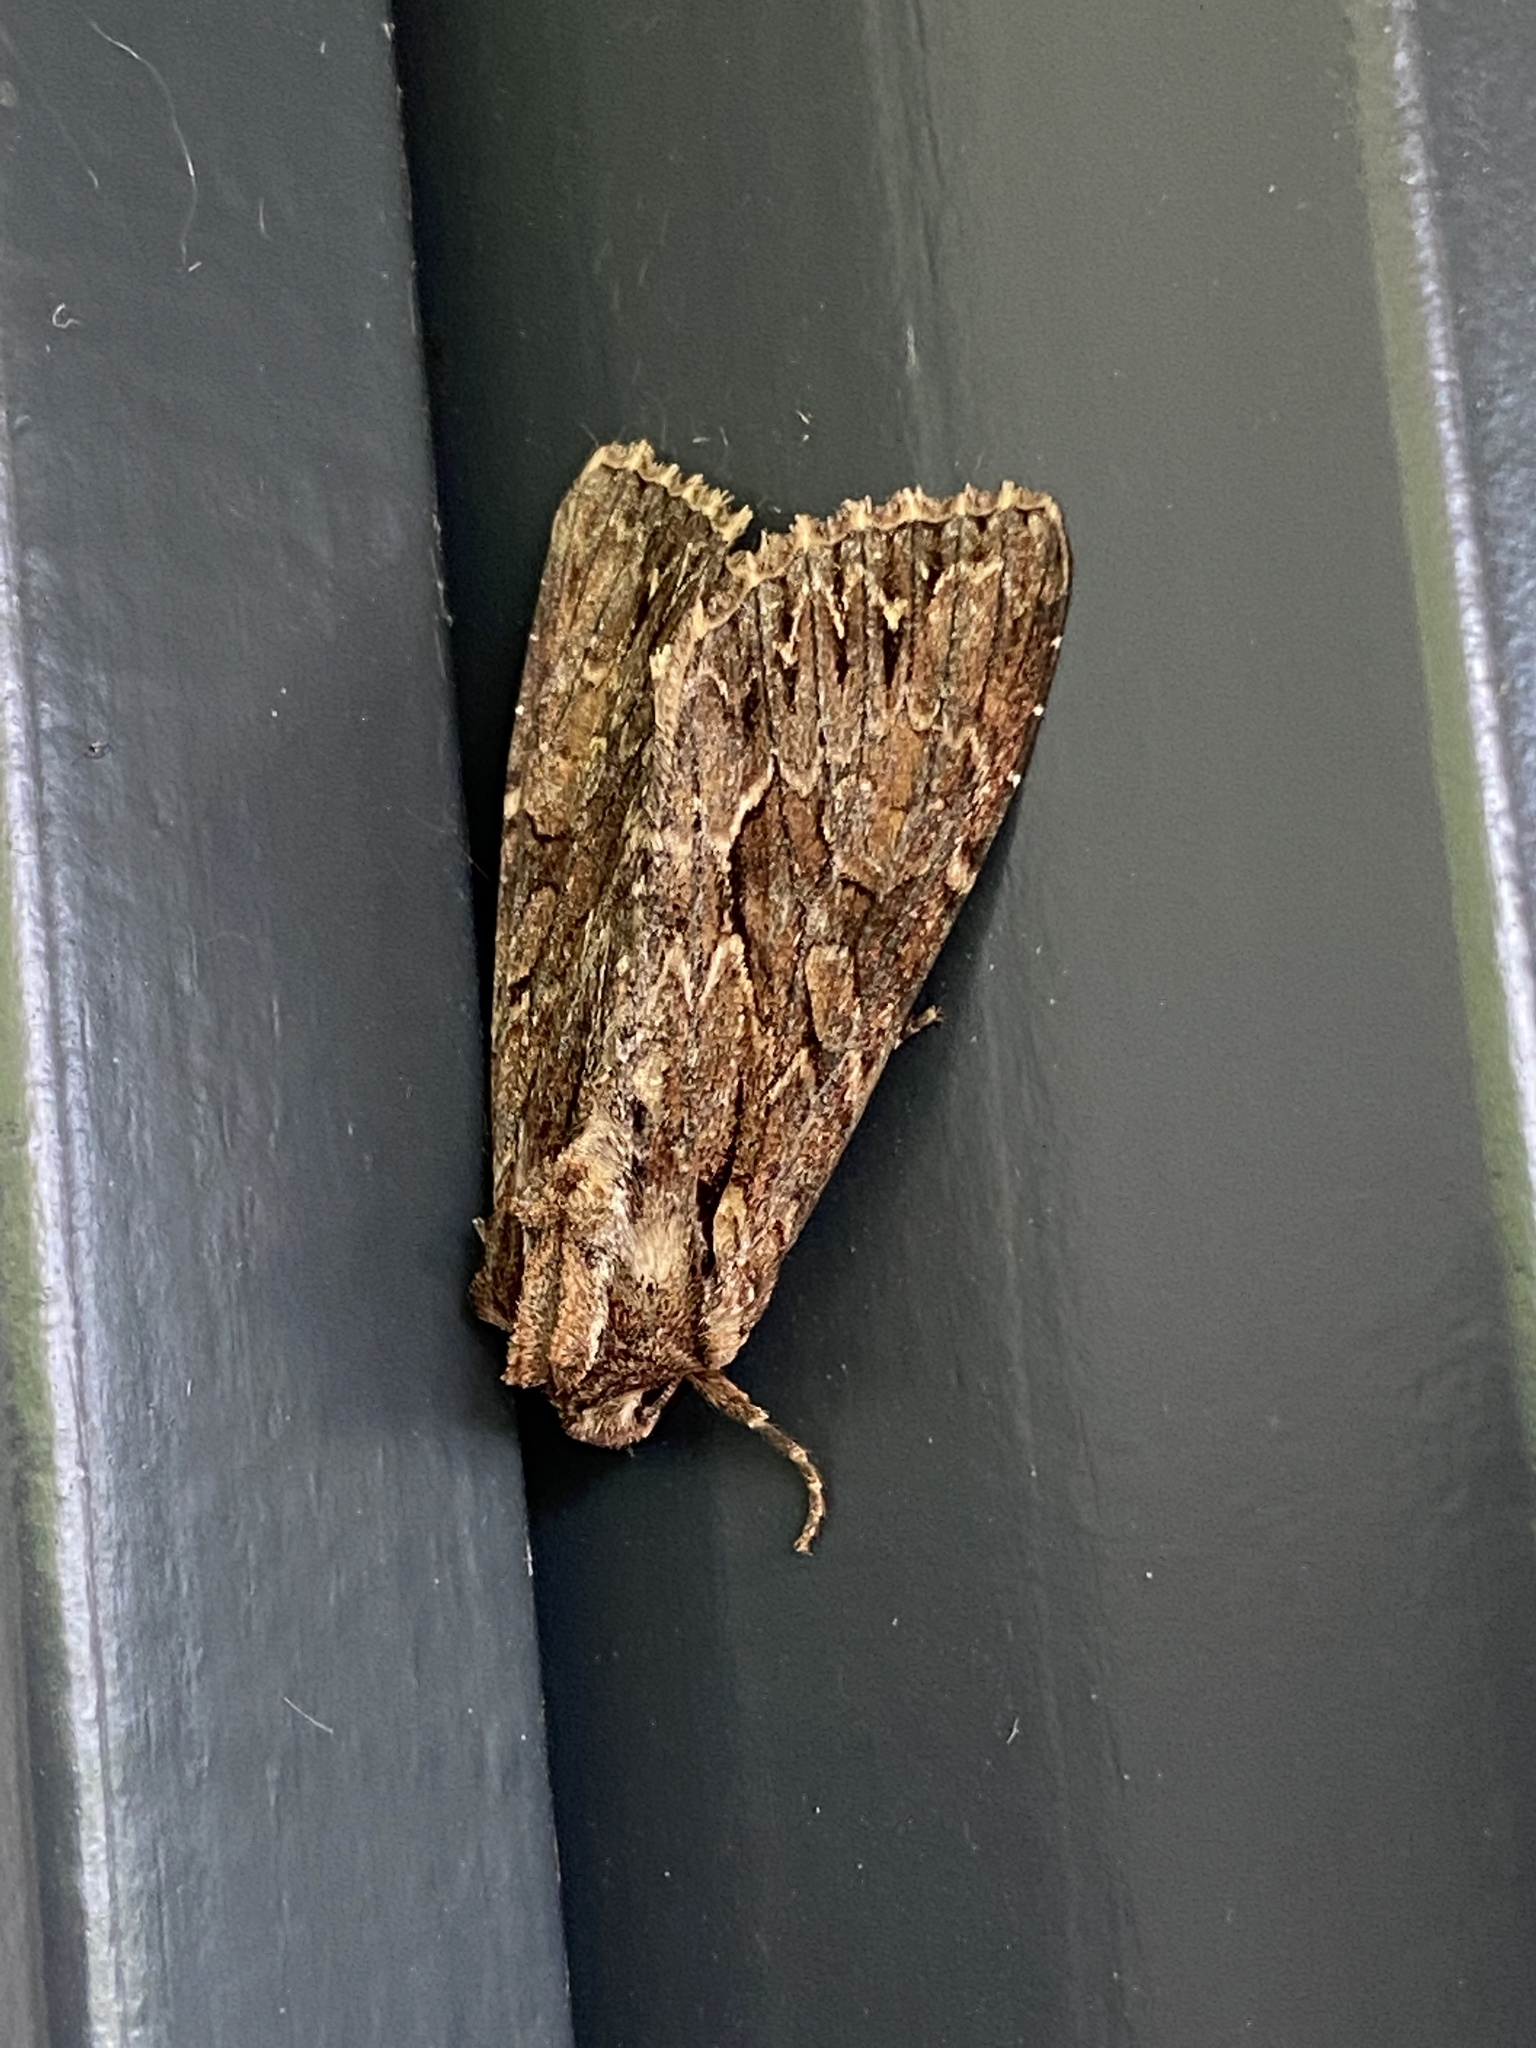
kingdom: Animalia
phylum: Arthropoda
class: Insecta
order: Lepidoptera
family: Noctuidae
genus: Apamea
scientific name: Apamea monoglypha
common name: Dark arches
